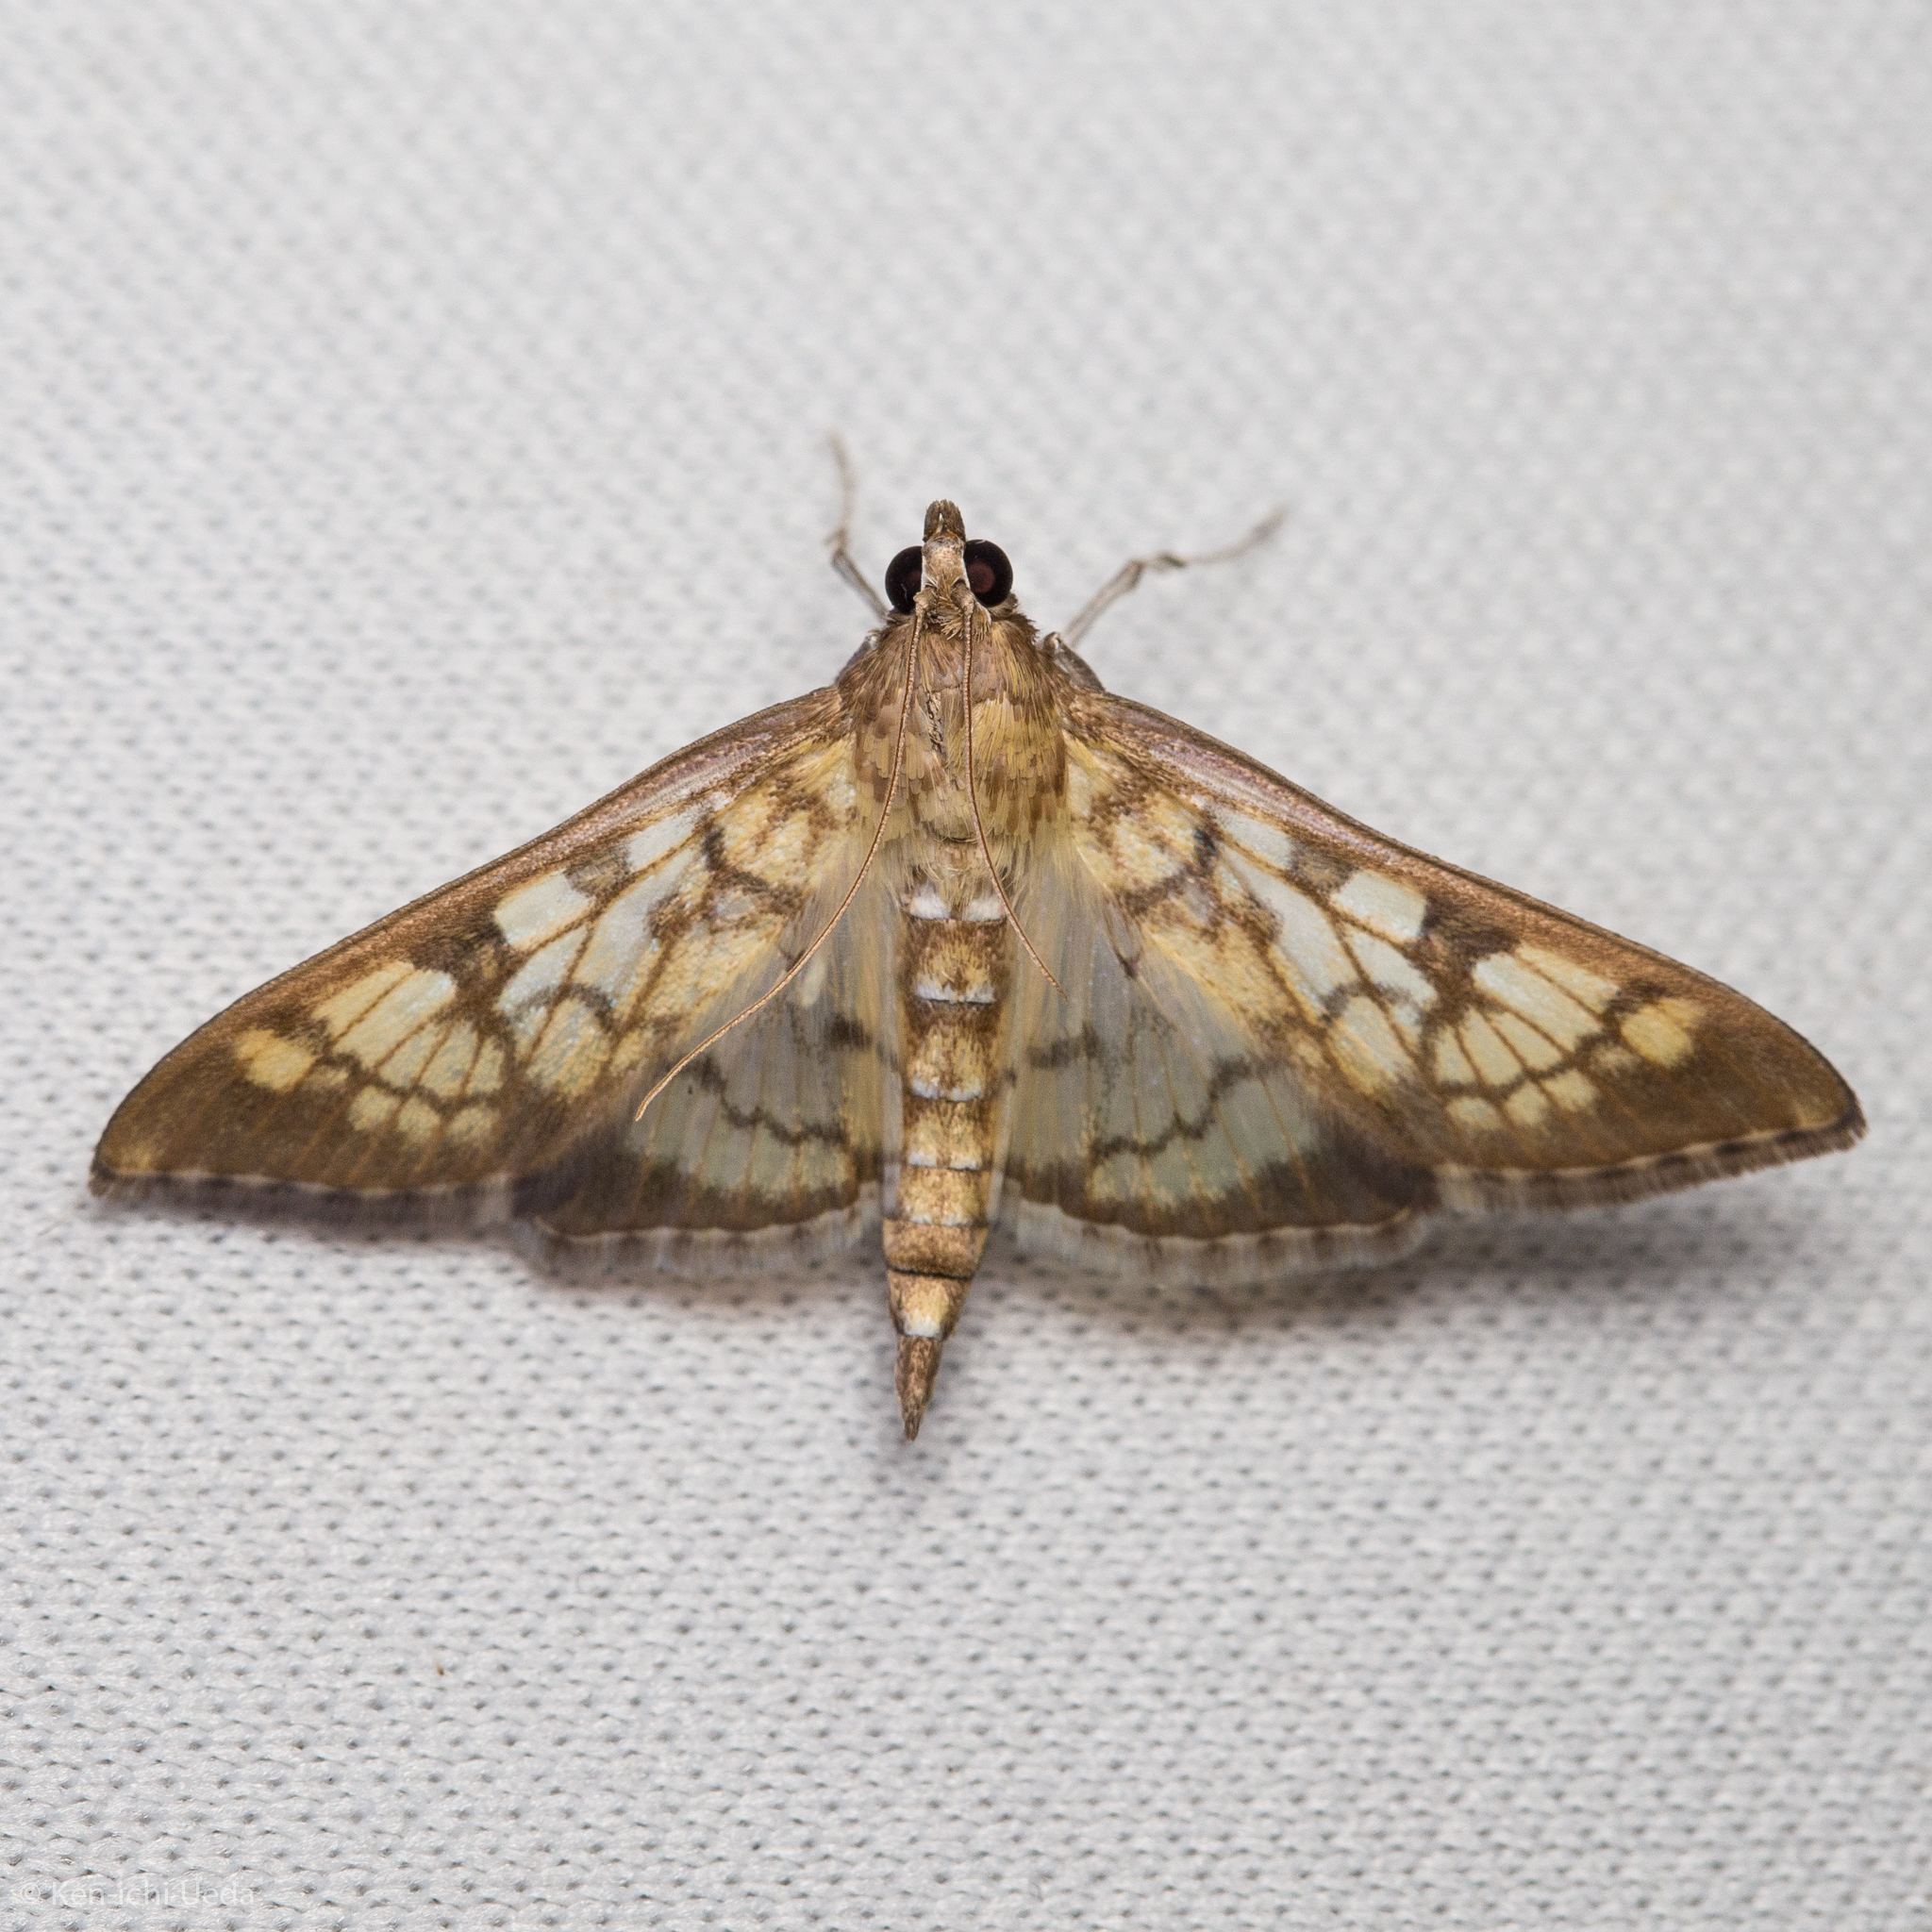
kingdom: Animalia
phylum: Arthropoda
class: Insecta
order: Lepidoptera
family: Crambidae
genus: Mimorista
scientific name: Mimorista subcostalis
